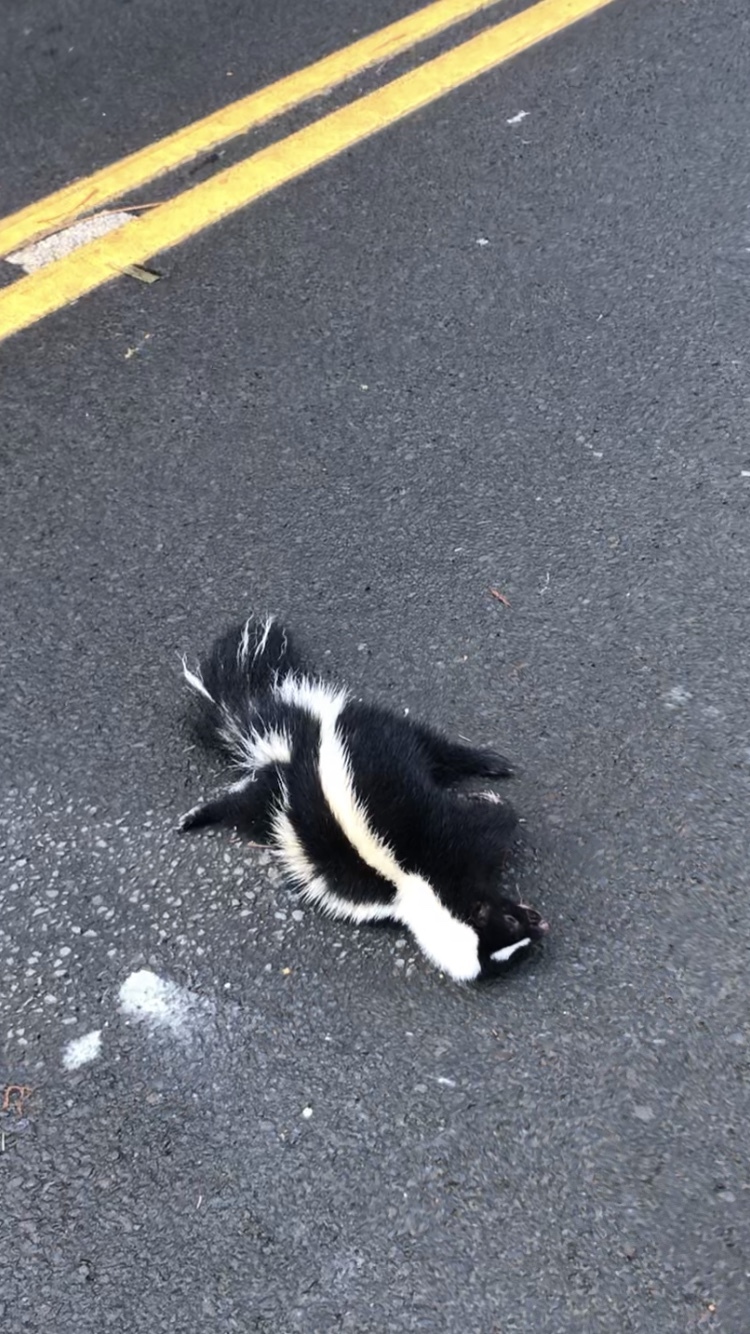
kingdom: Animalia
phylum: Chordata
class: Mammalia
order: Carnivora
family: Mephitidae
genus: Mephitis
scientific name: Mephitis mephitis
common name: Striped skunk
